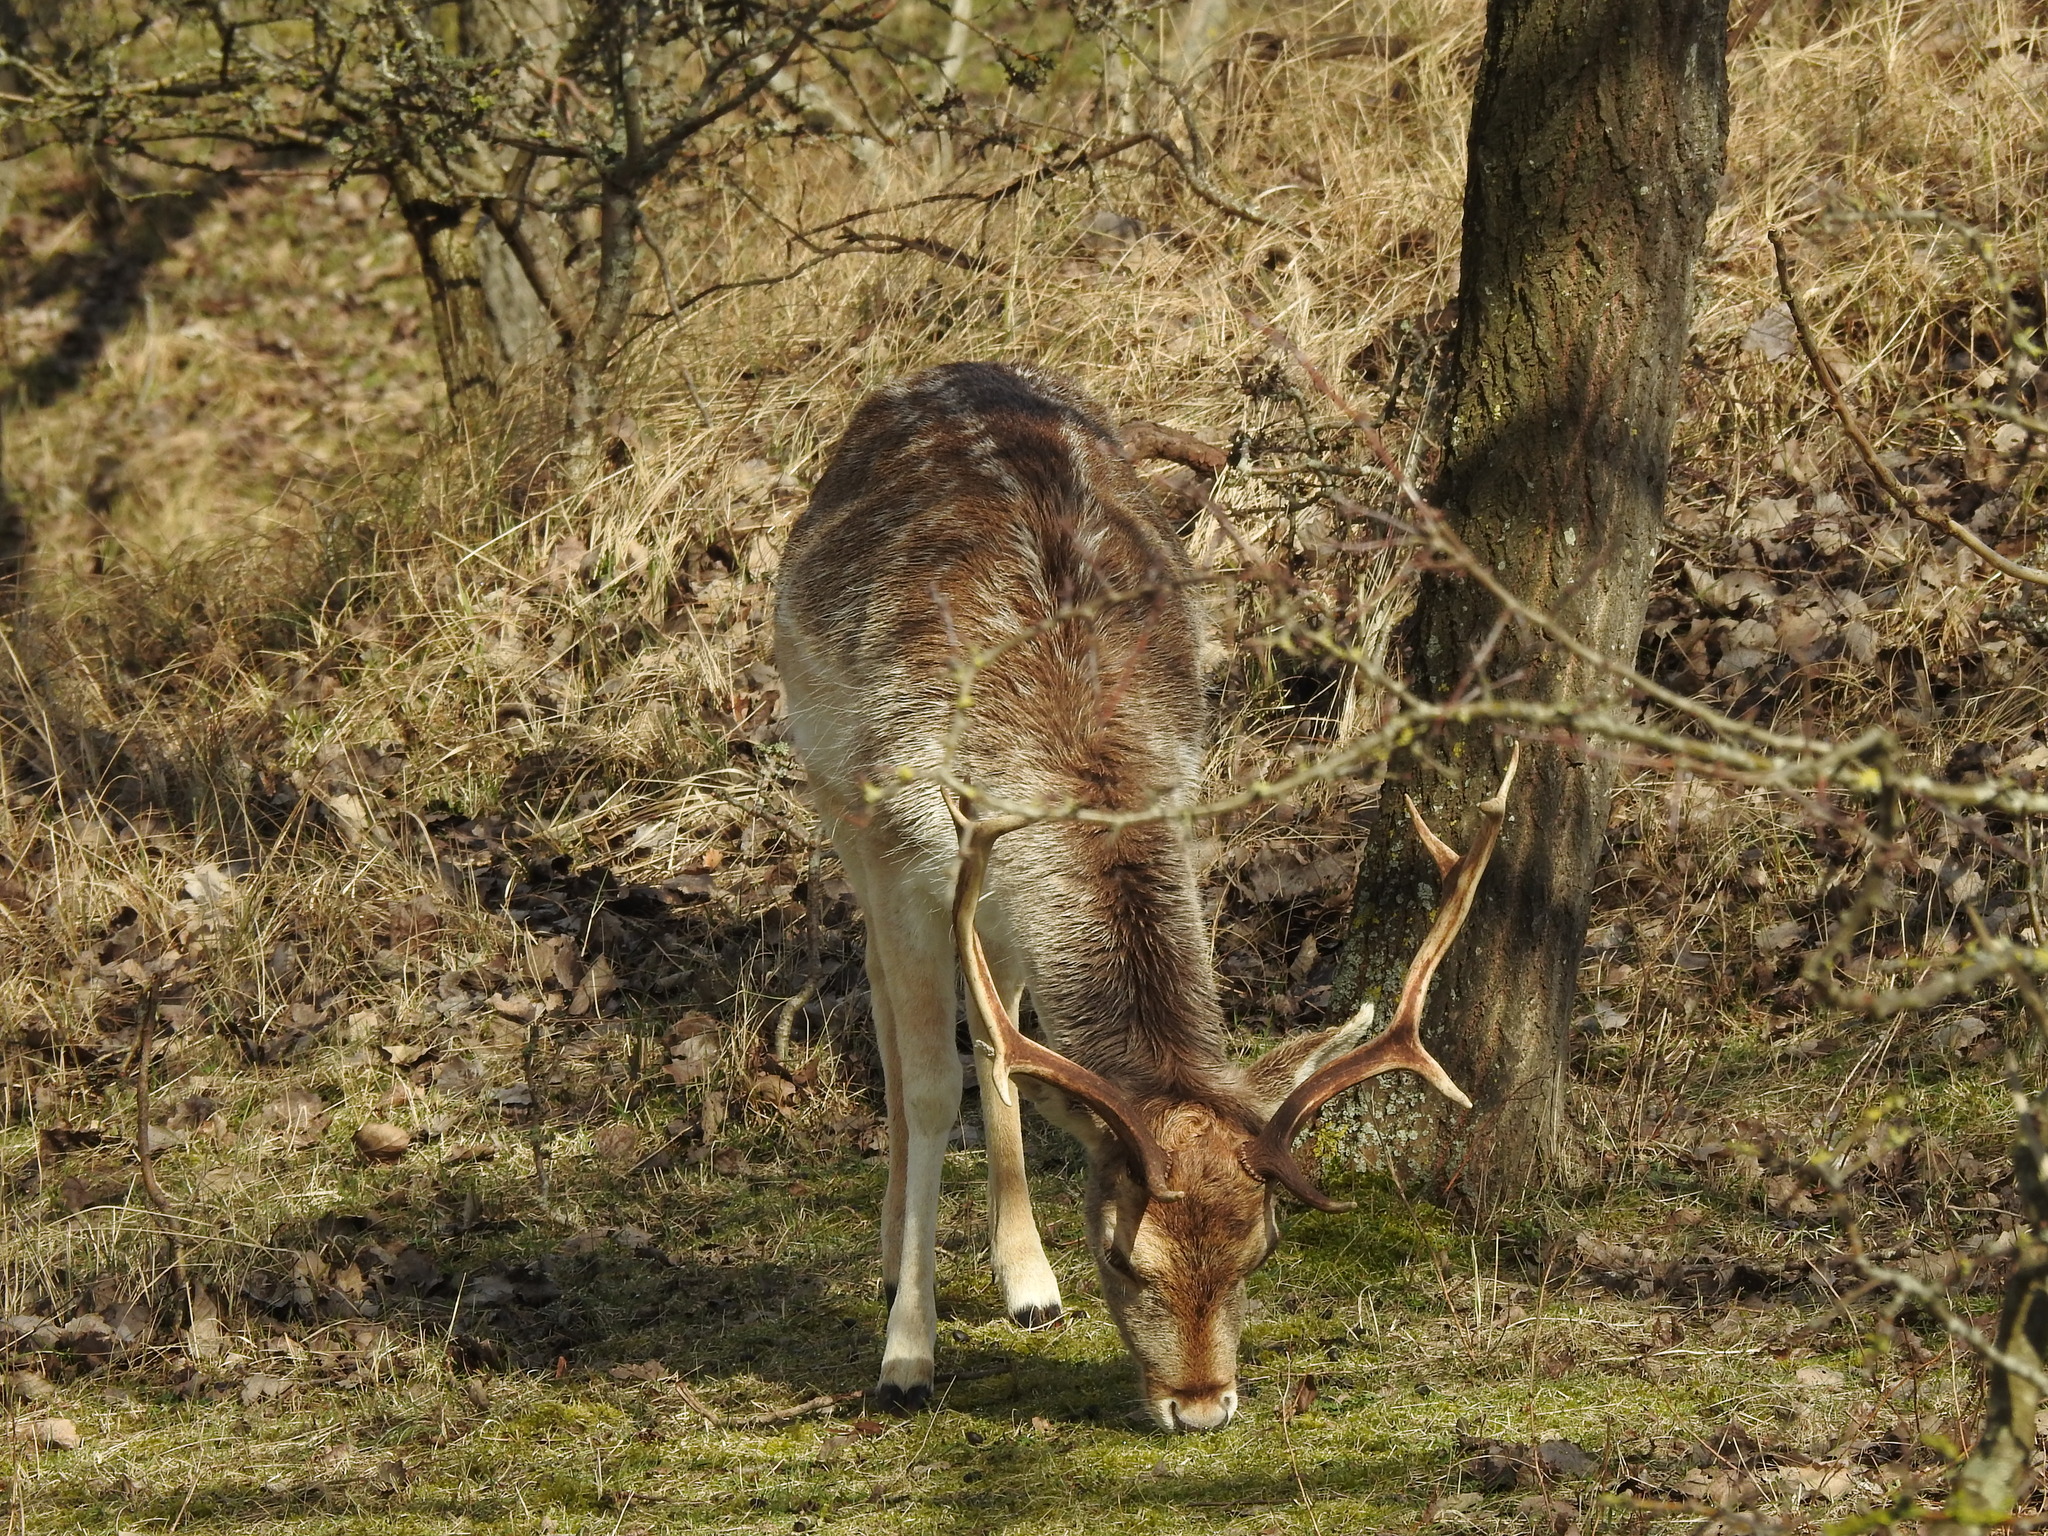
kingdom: Animalia
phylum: Chordata
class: Mammalia
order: Artiodactyla
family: Cervidae
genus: Dama
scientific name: Dama dama
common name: Fallow deer
